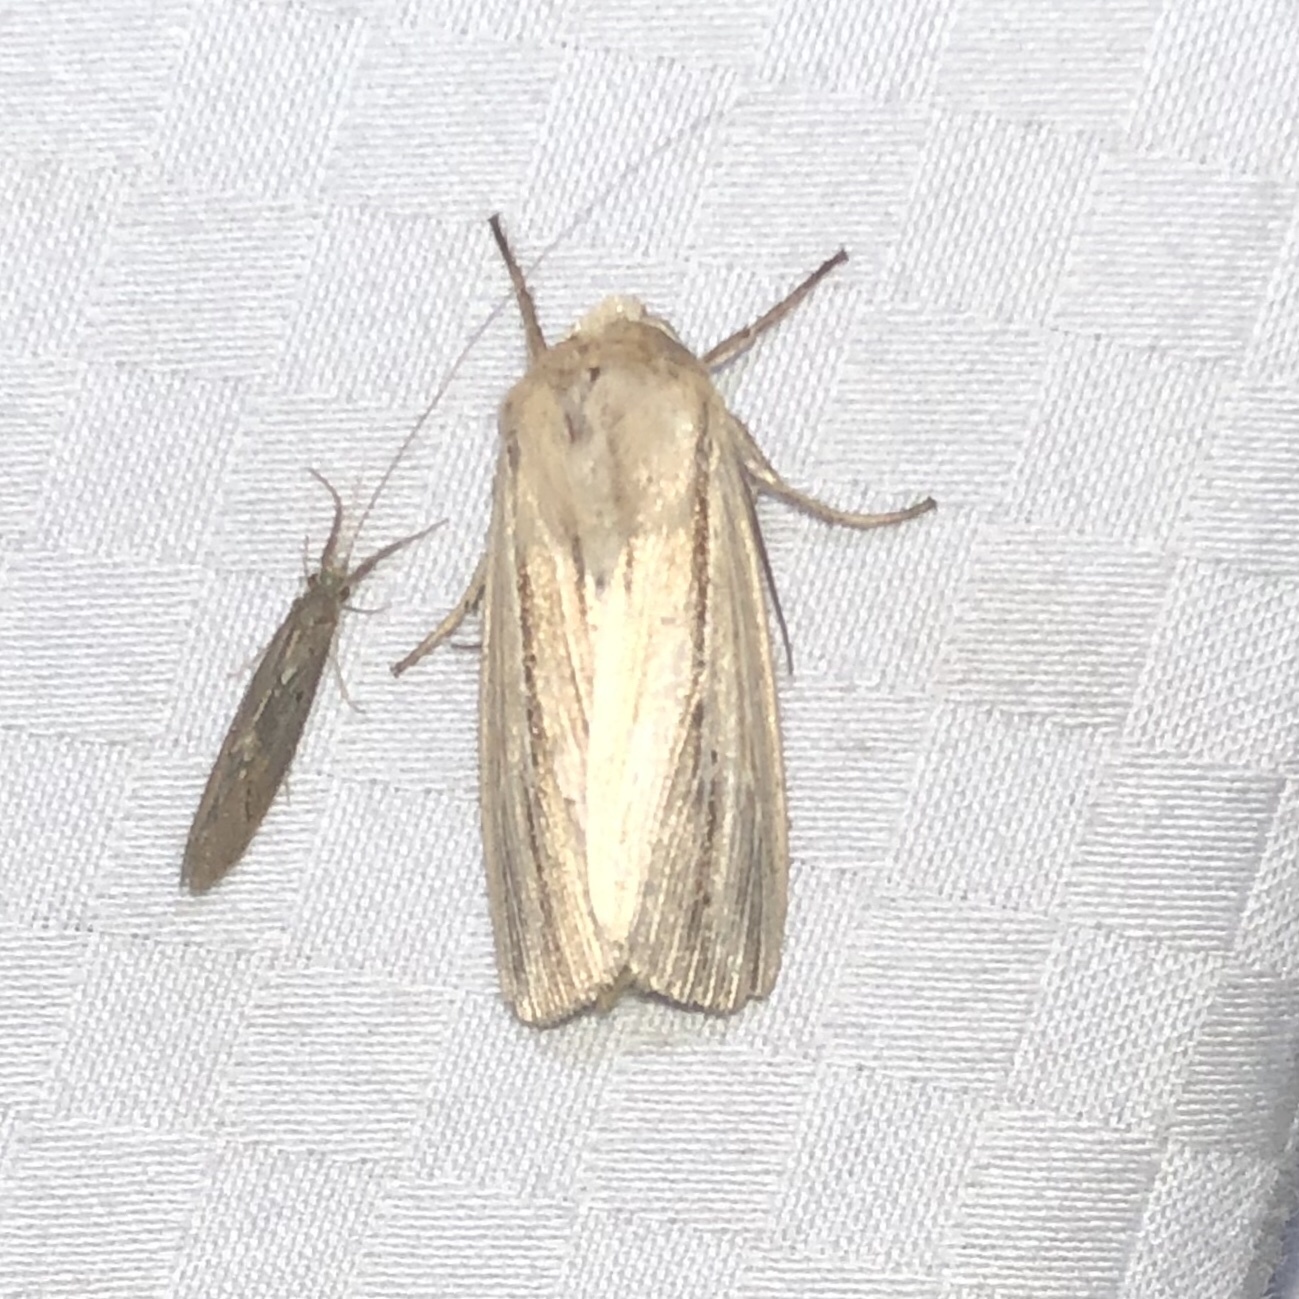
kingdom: Animalia
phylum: Arthropoda
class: Insecta
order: Lepidoptera
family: Noctuidae
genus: Dargida
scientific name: Dargida diffusa
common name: Wheat head armyworm
